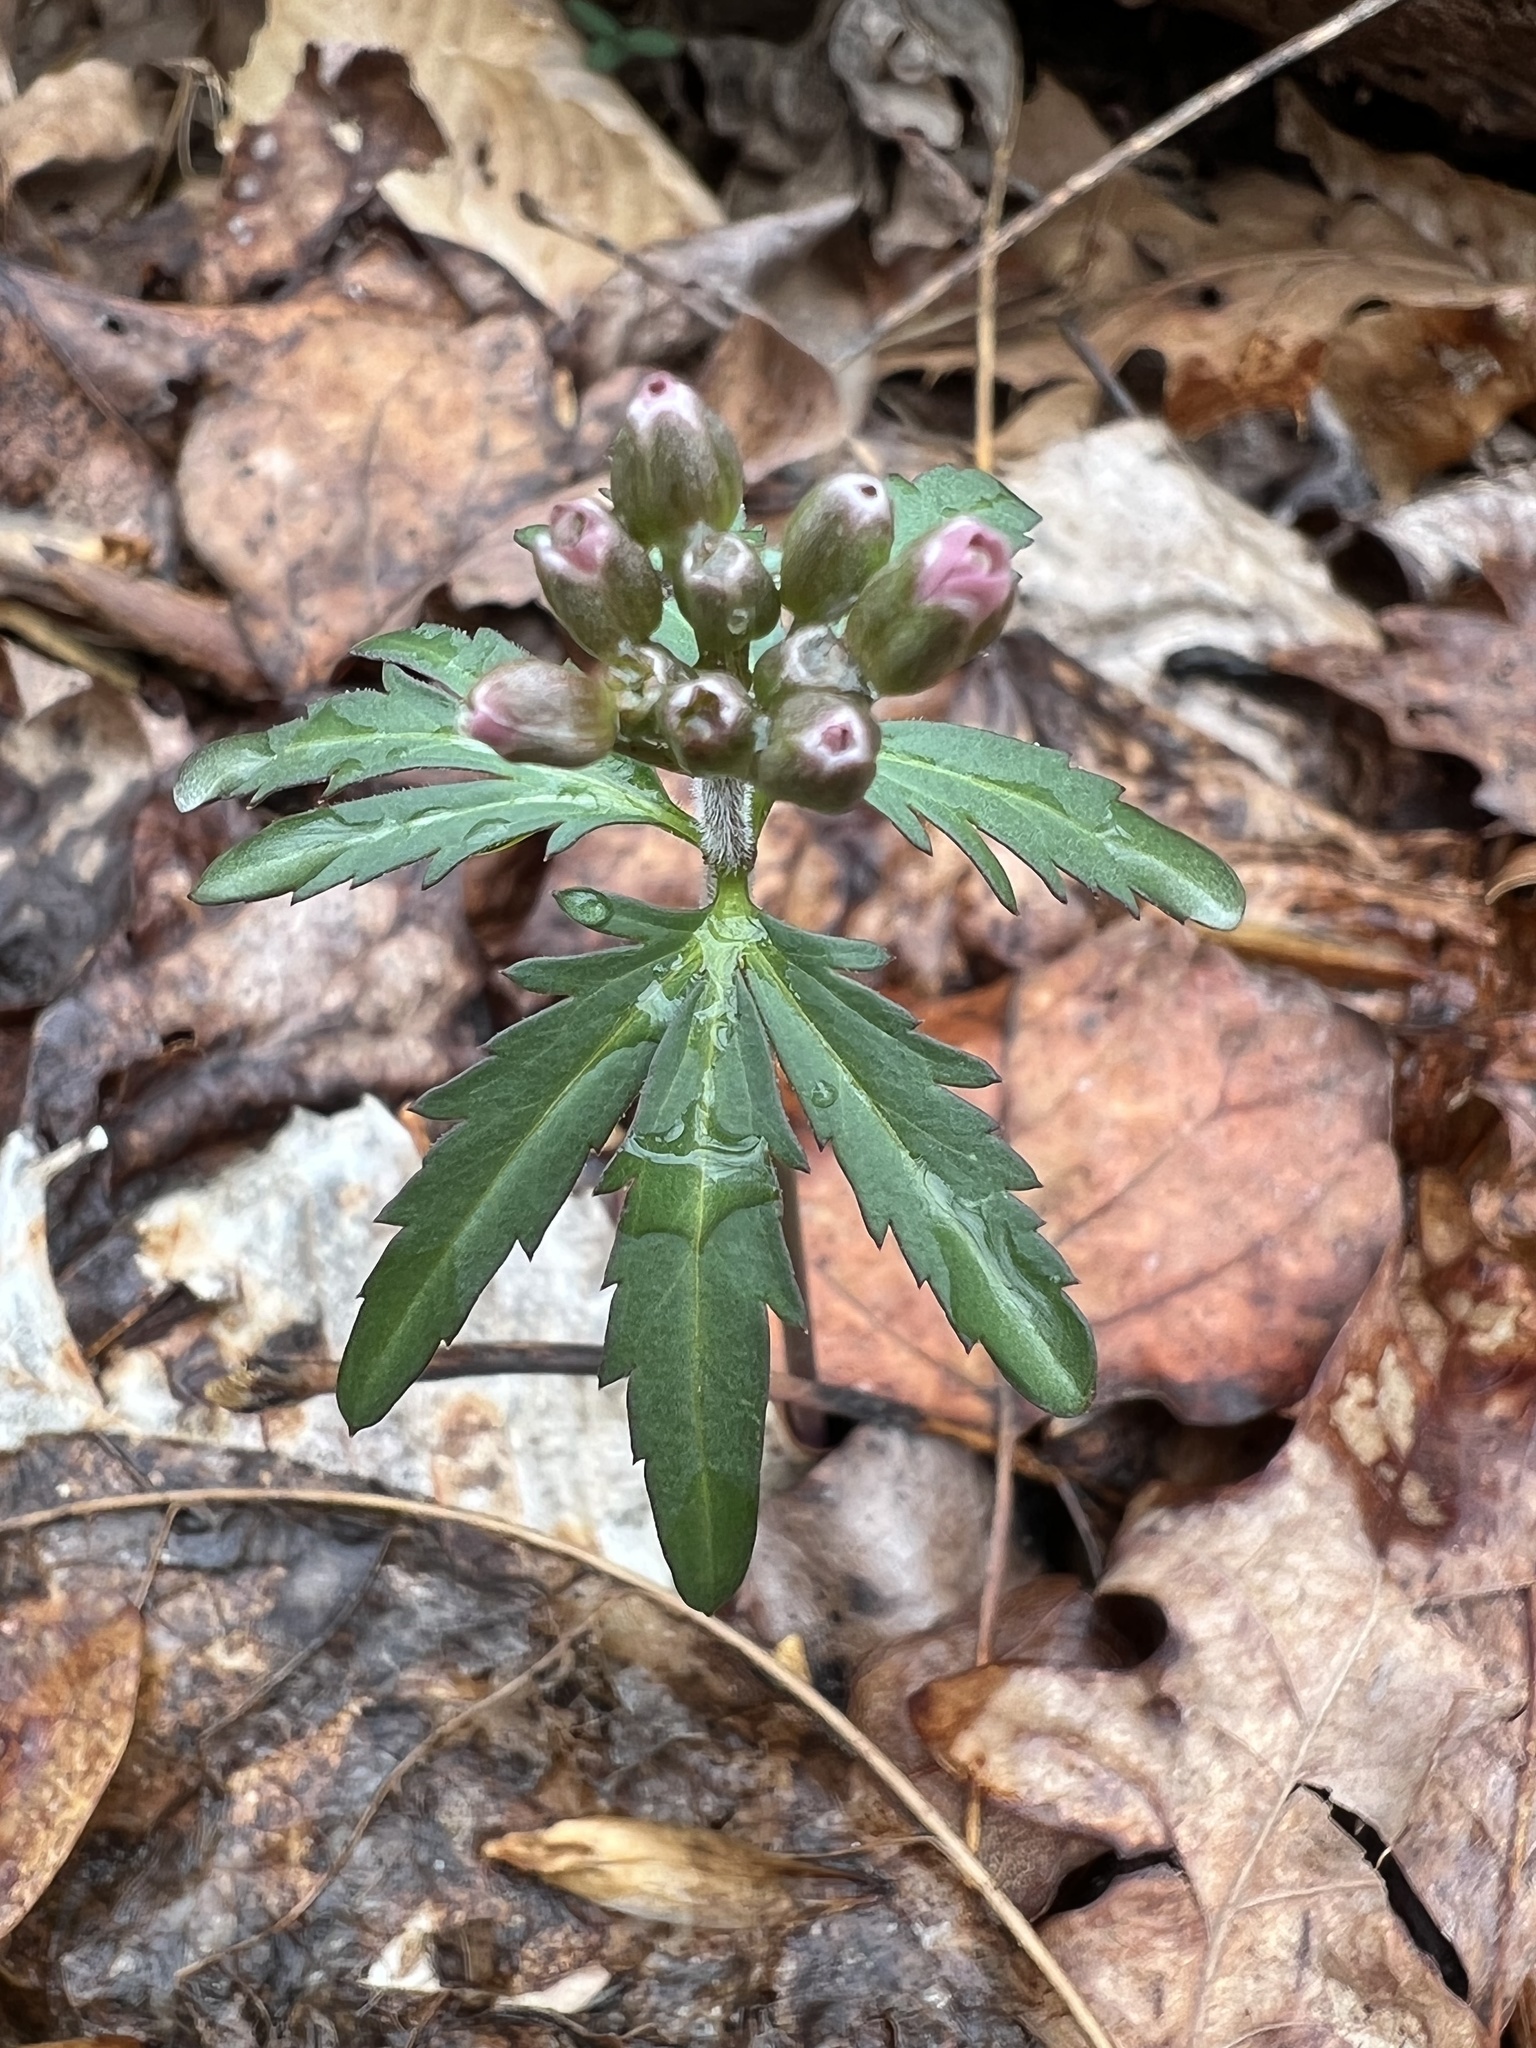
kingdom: Plantae
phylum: Tracheophyta
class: Magnoliopsida
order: Brassicales
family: Brassicaceae
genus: Cardamine
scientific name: Cardamine concatenata
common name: Cut-leaf toothcup
